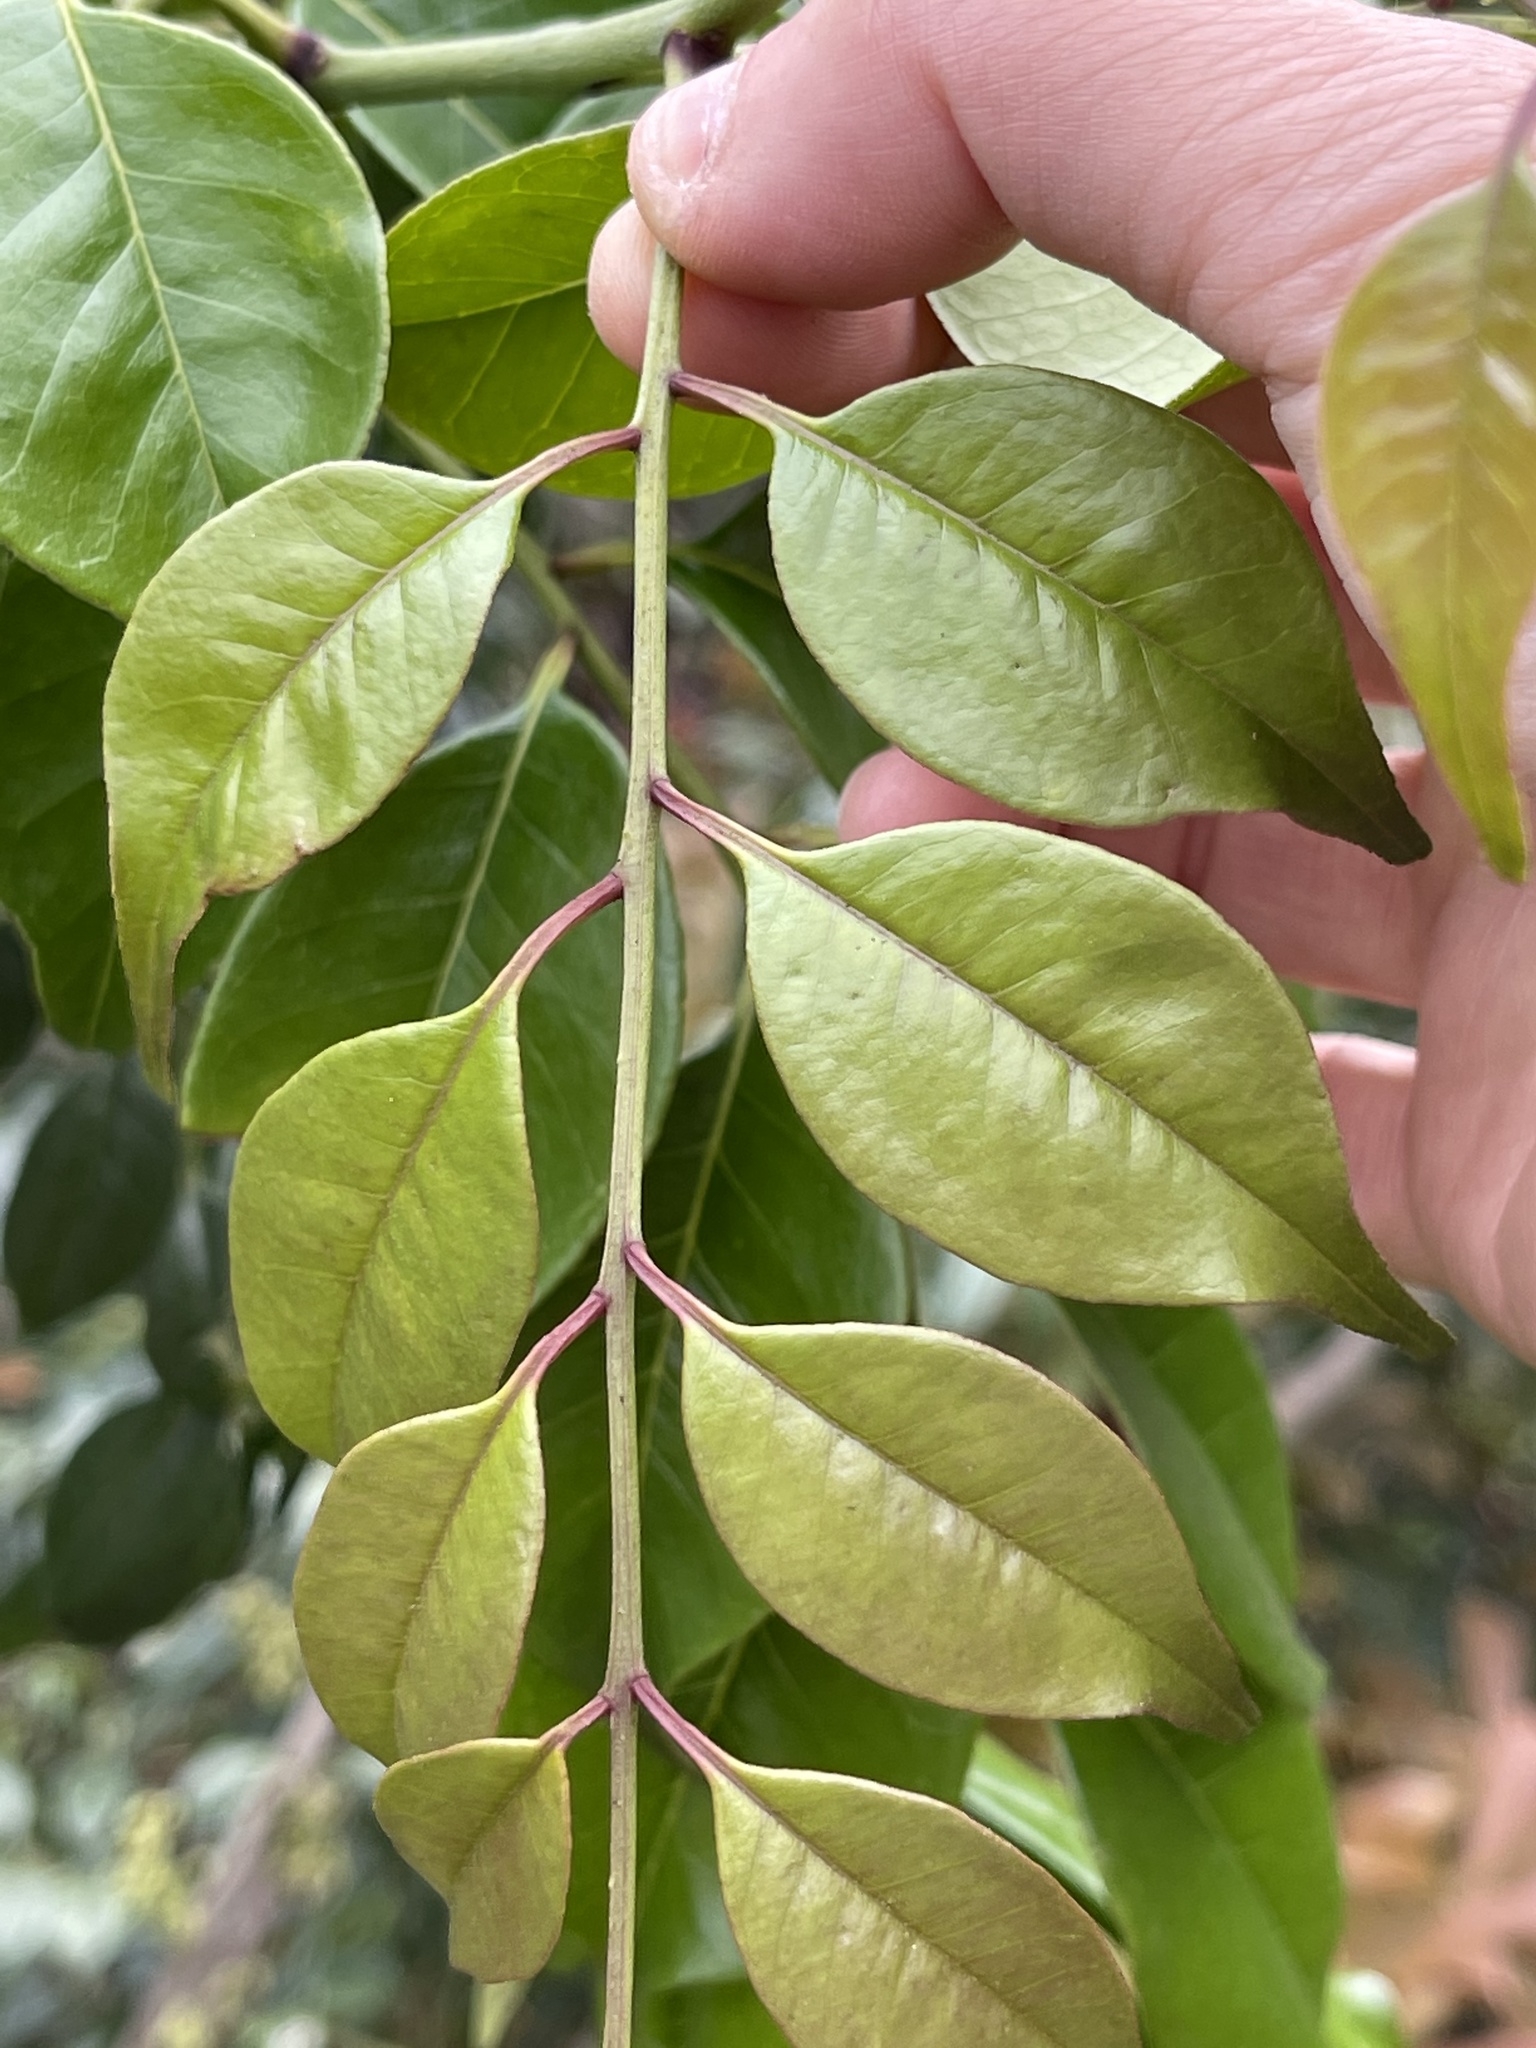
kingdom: Plantae
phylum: Tracheophyta
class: Magnoliopsida
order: Sapindales
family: Rutaceae
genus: Zanthoxylum
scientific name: Zanthoxylum scandens
